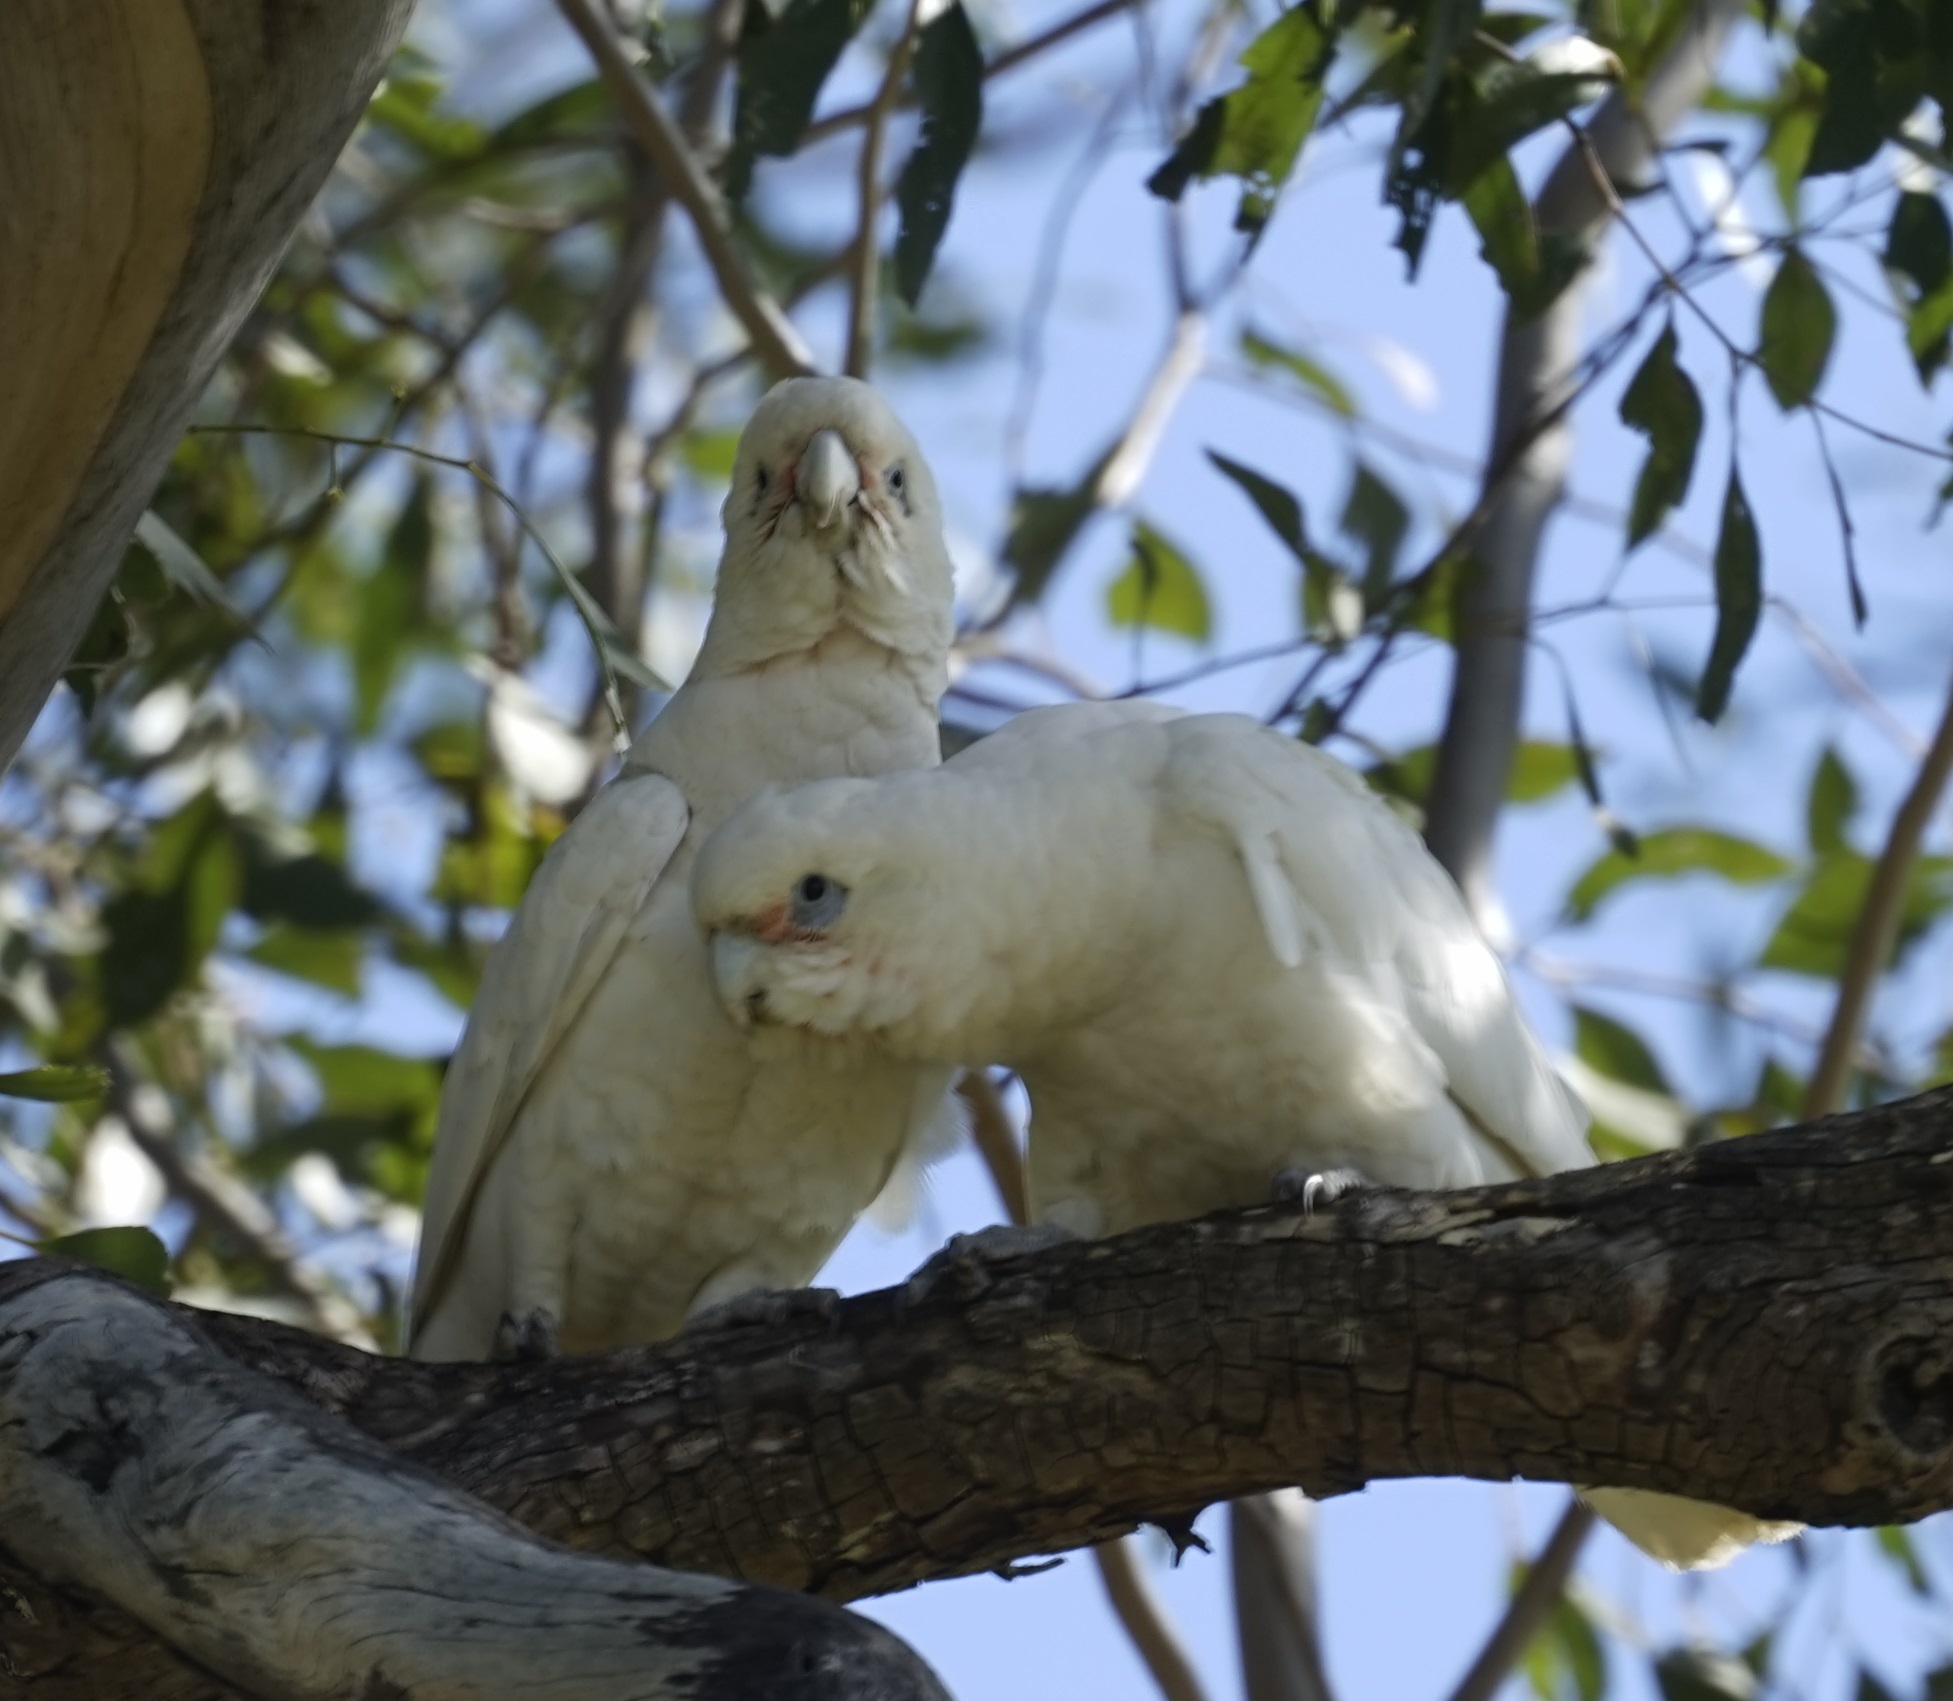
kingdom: Animalia
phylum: Chordata
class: Aves
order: Psittaciformes
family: Psittacidae
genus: Cacatua
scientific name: Cacatua sanguinea
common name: Little corella
